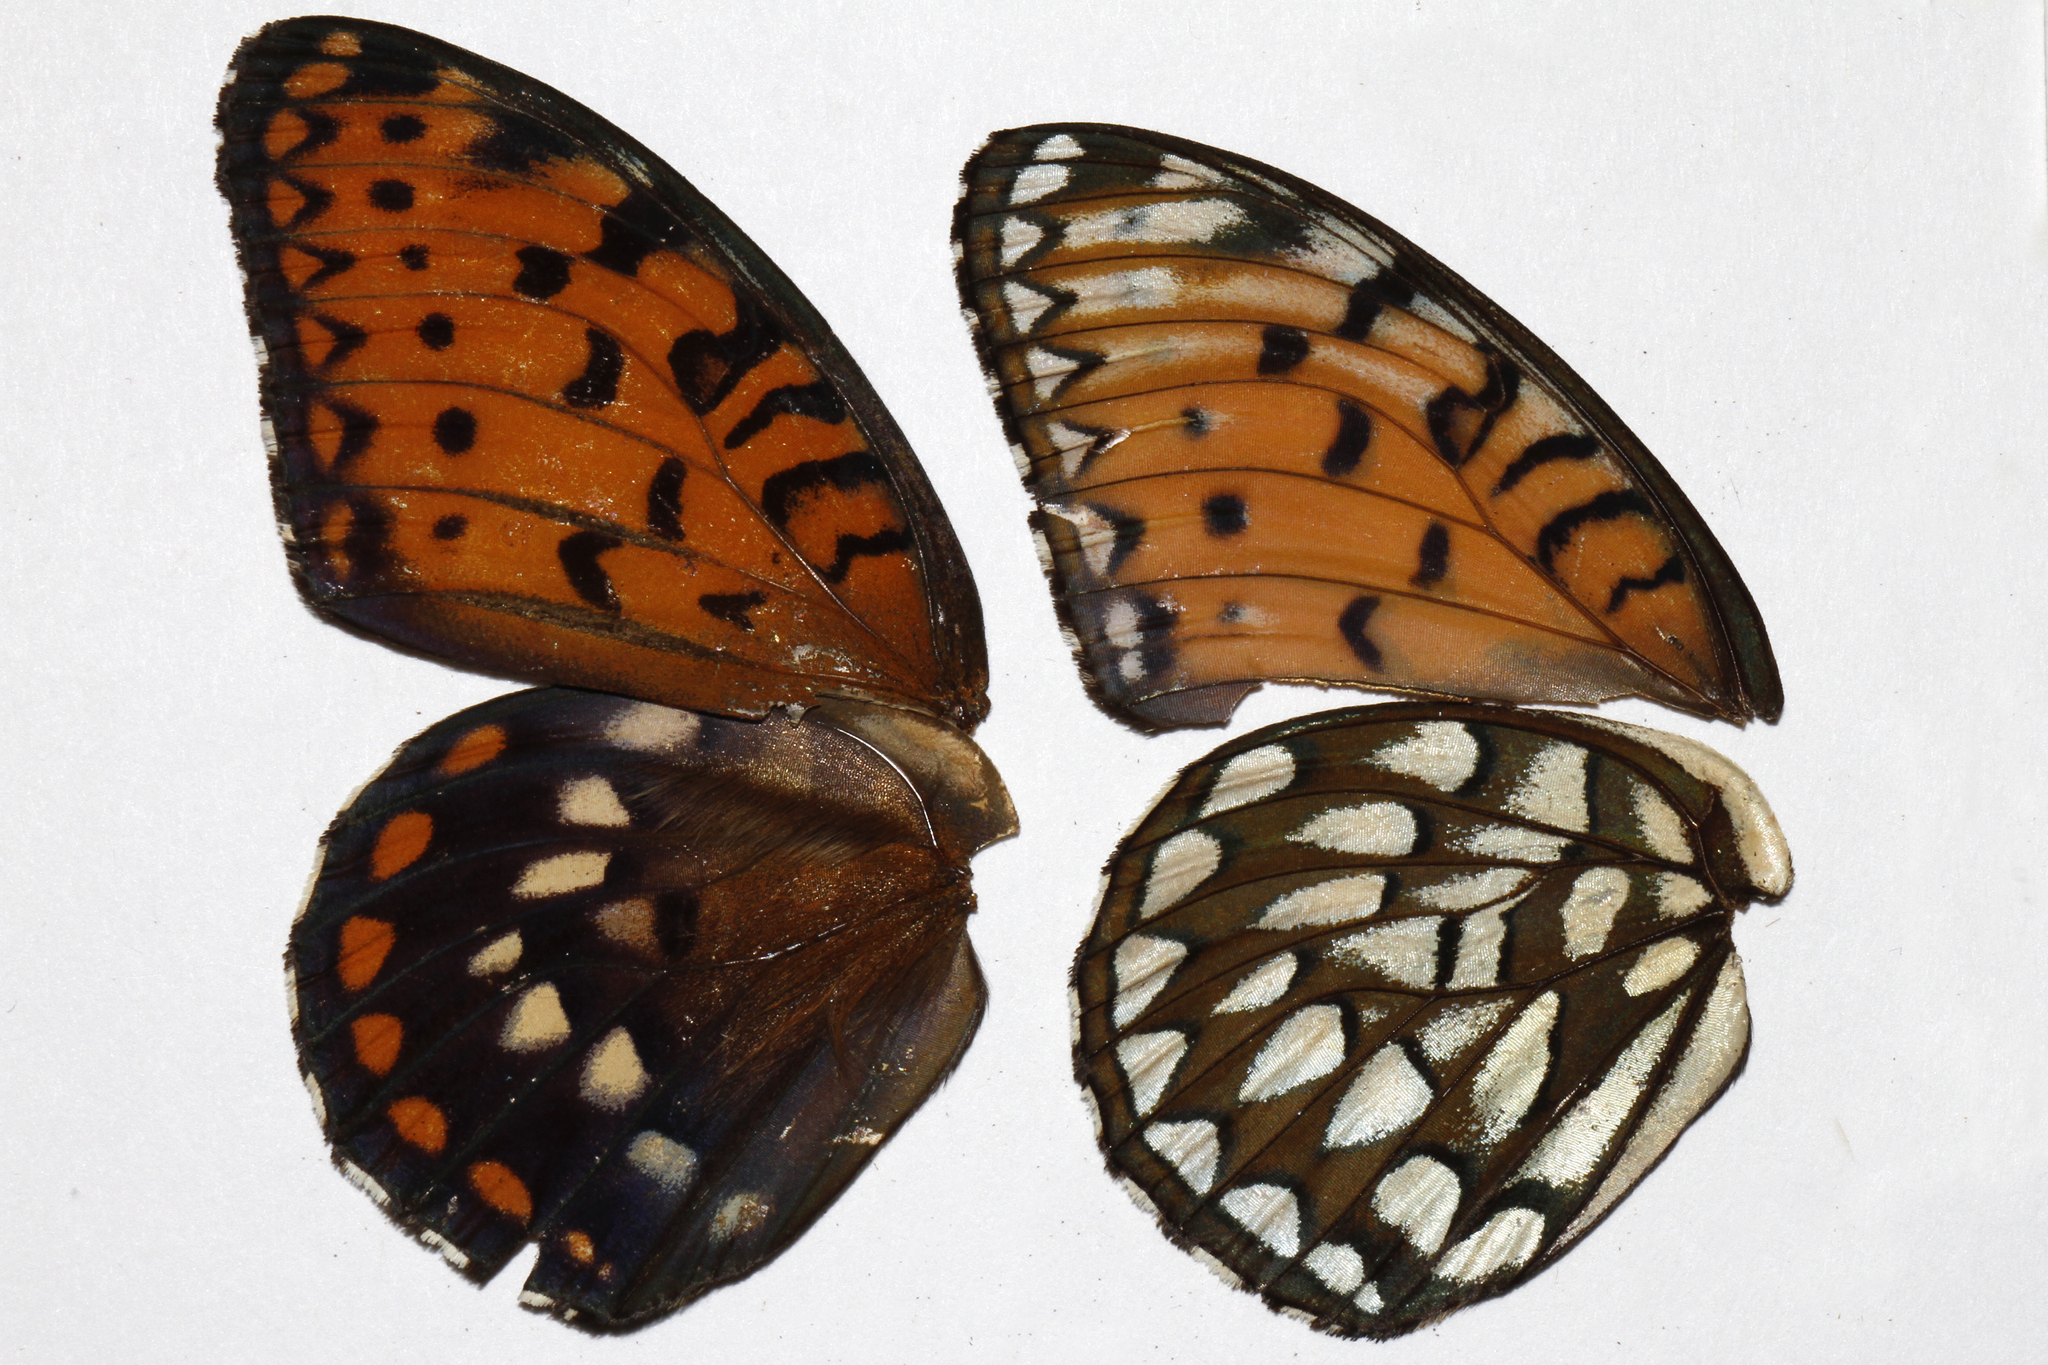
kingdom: Animalia
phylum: Arthropoda
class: Insecta
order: Lepidoptera
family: Nymphalidae
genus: Speyeria
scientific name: Speyeria idalia
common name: Regal fritillary
